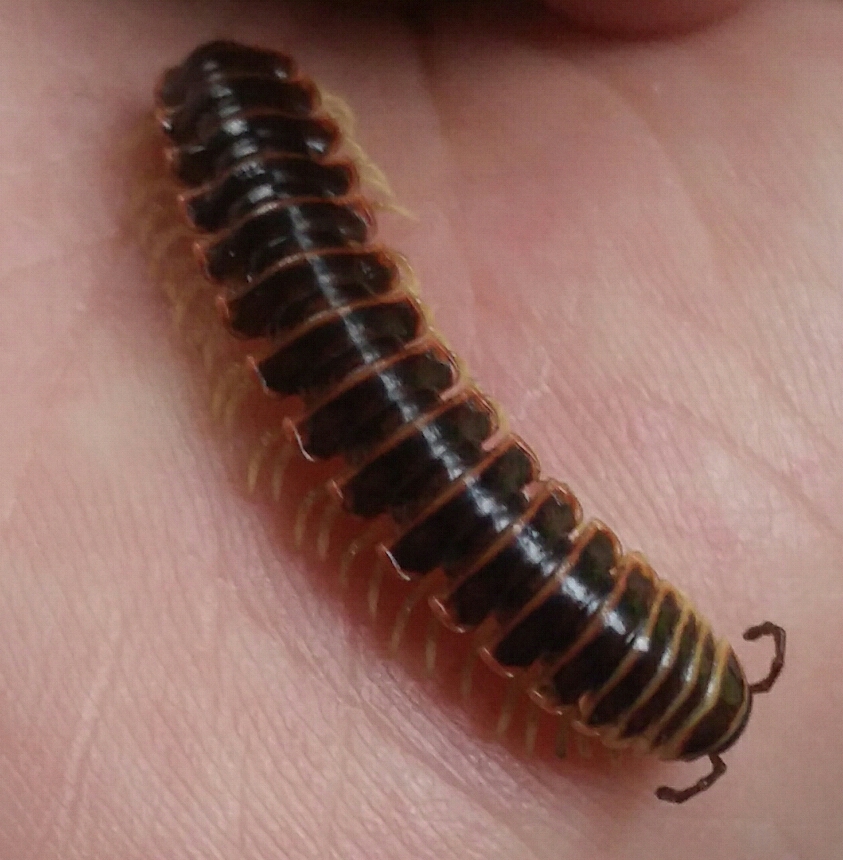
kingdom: Animalia
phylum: Arthropoda
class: Diplopoda
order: Polydesmida
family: Xystodesmidae
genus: Pleuroloma
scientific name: Pleuroloma cala
